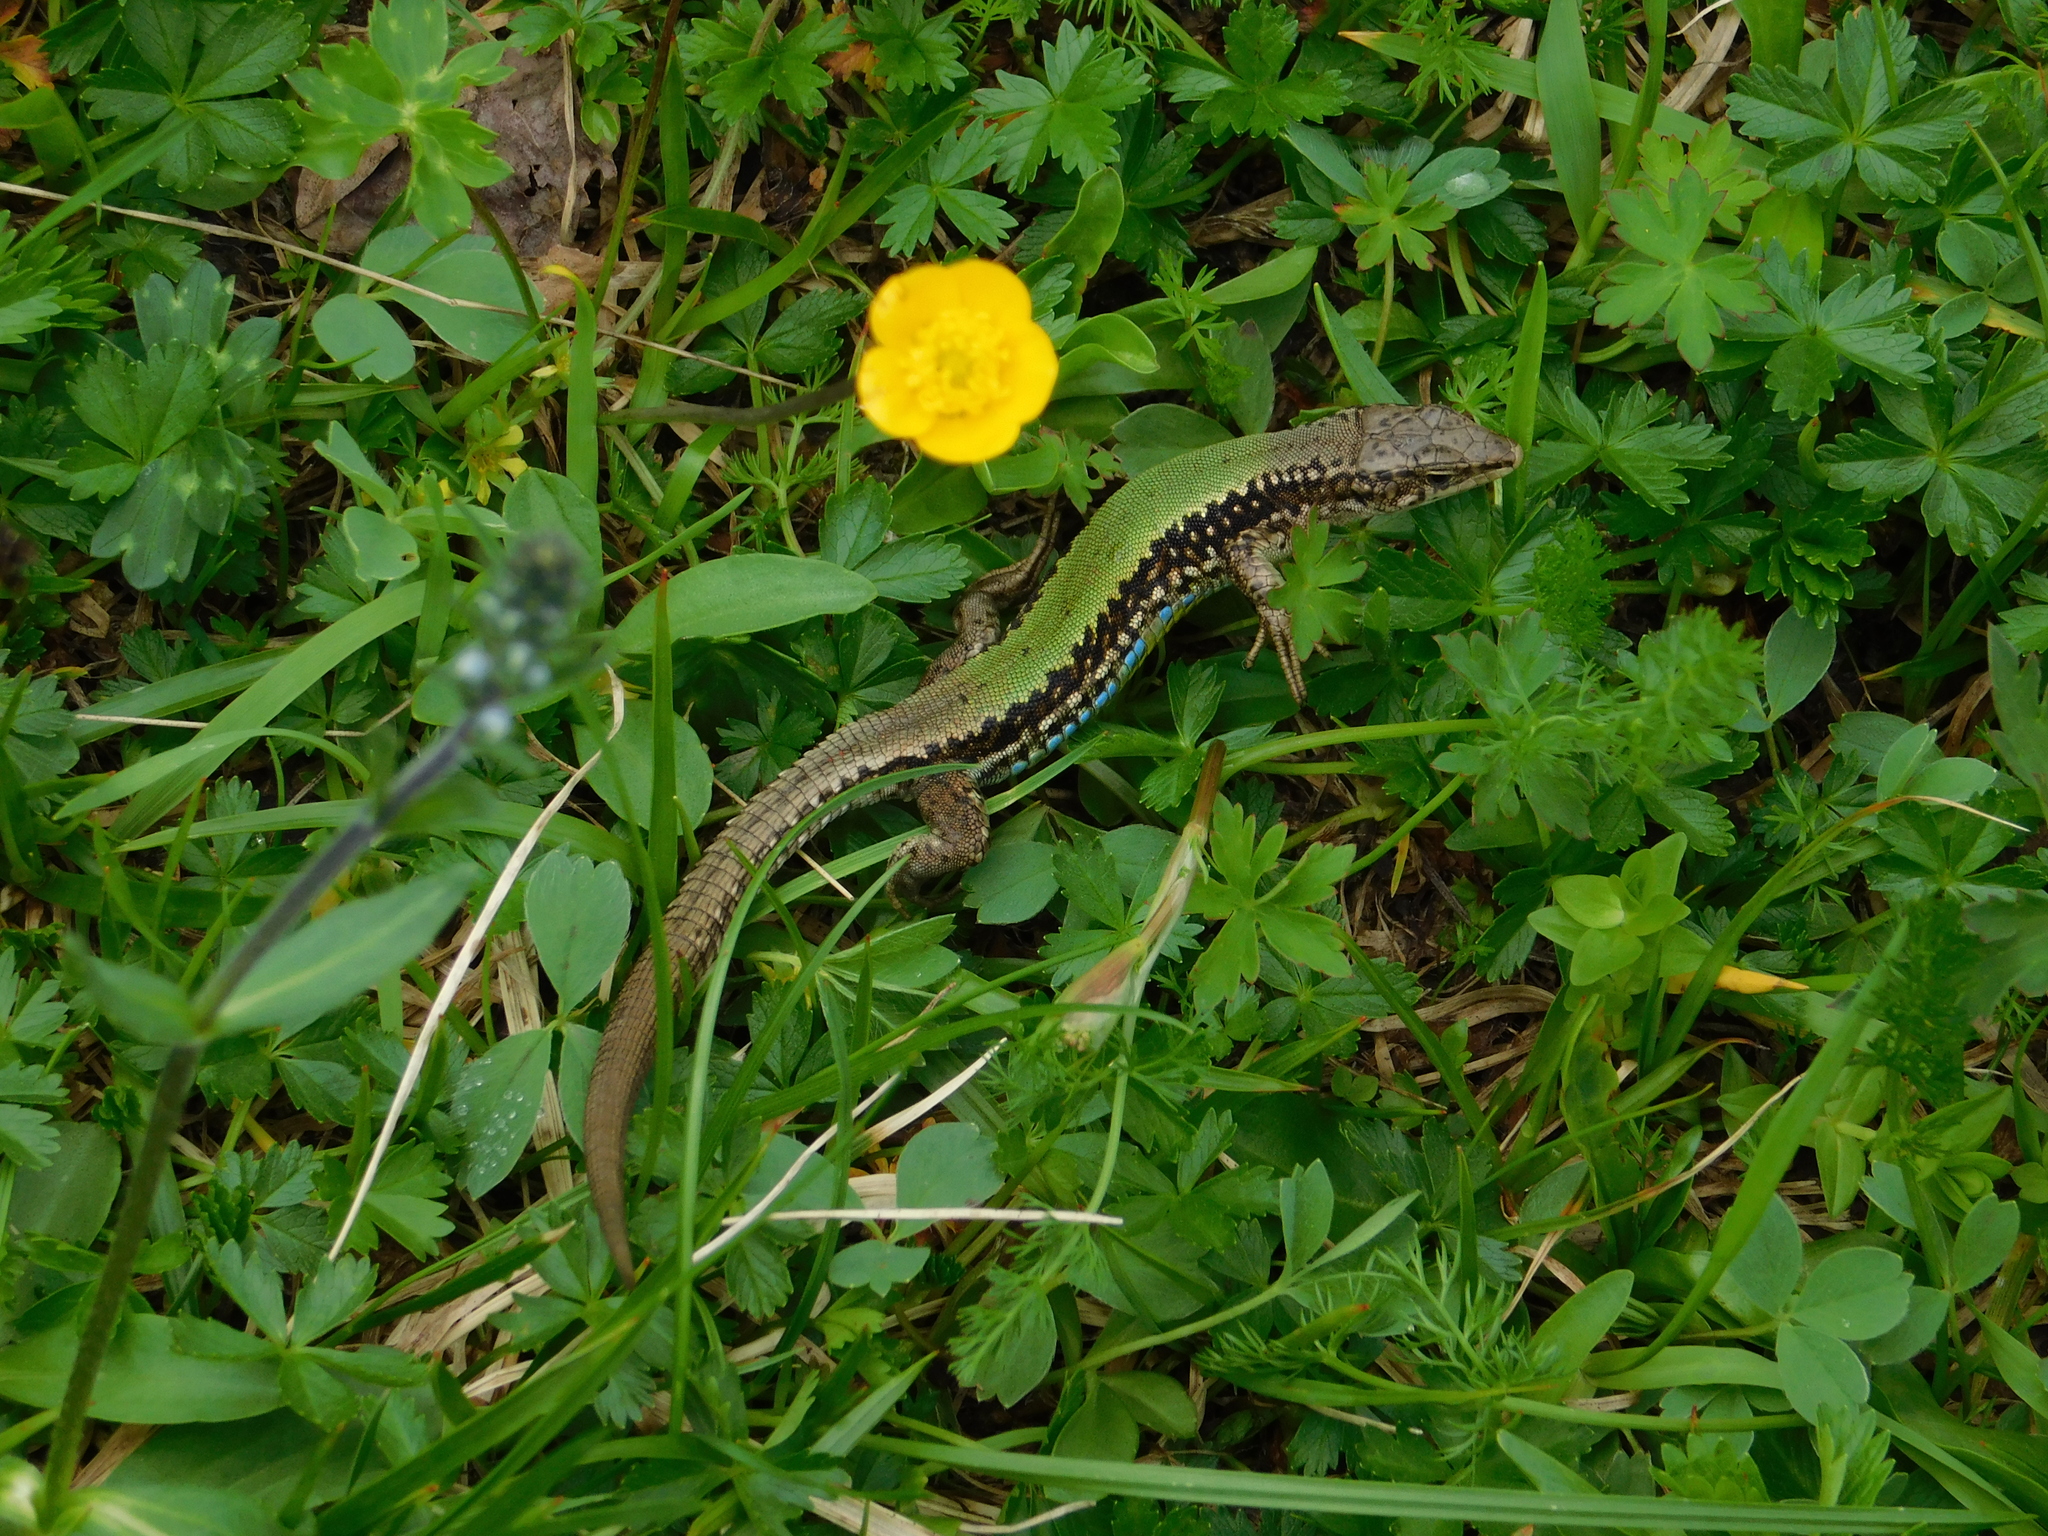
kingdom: Animalia
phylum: Chordata
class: Squamata
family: Lacertidae
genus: Darevskia
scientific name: Darevskia brauneri
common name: Brauner's rock lizard
